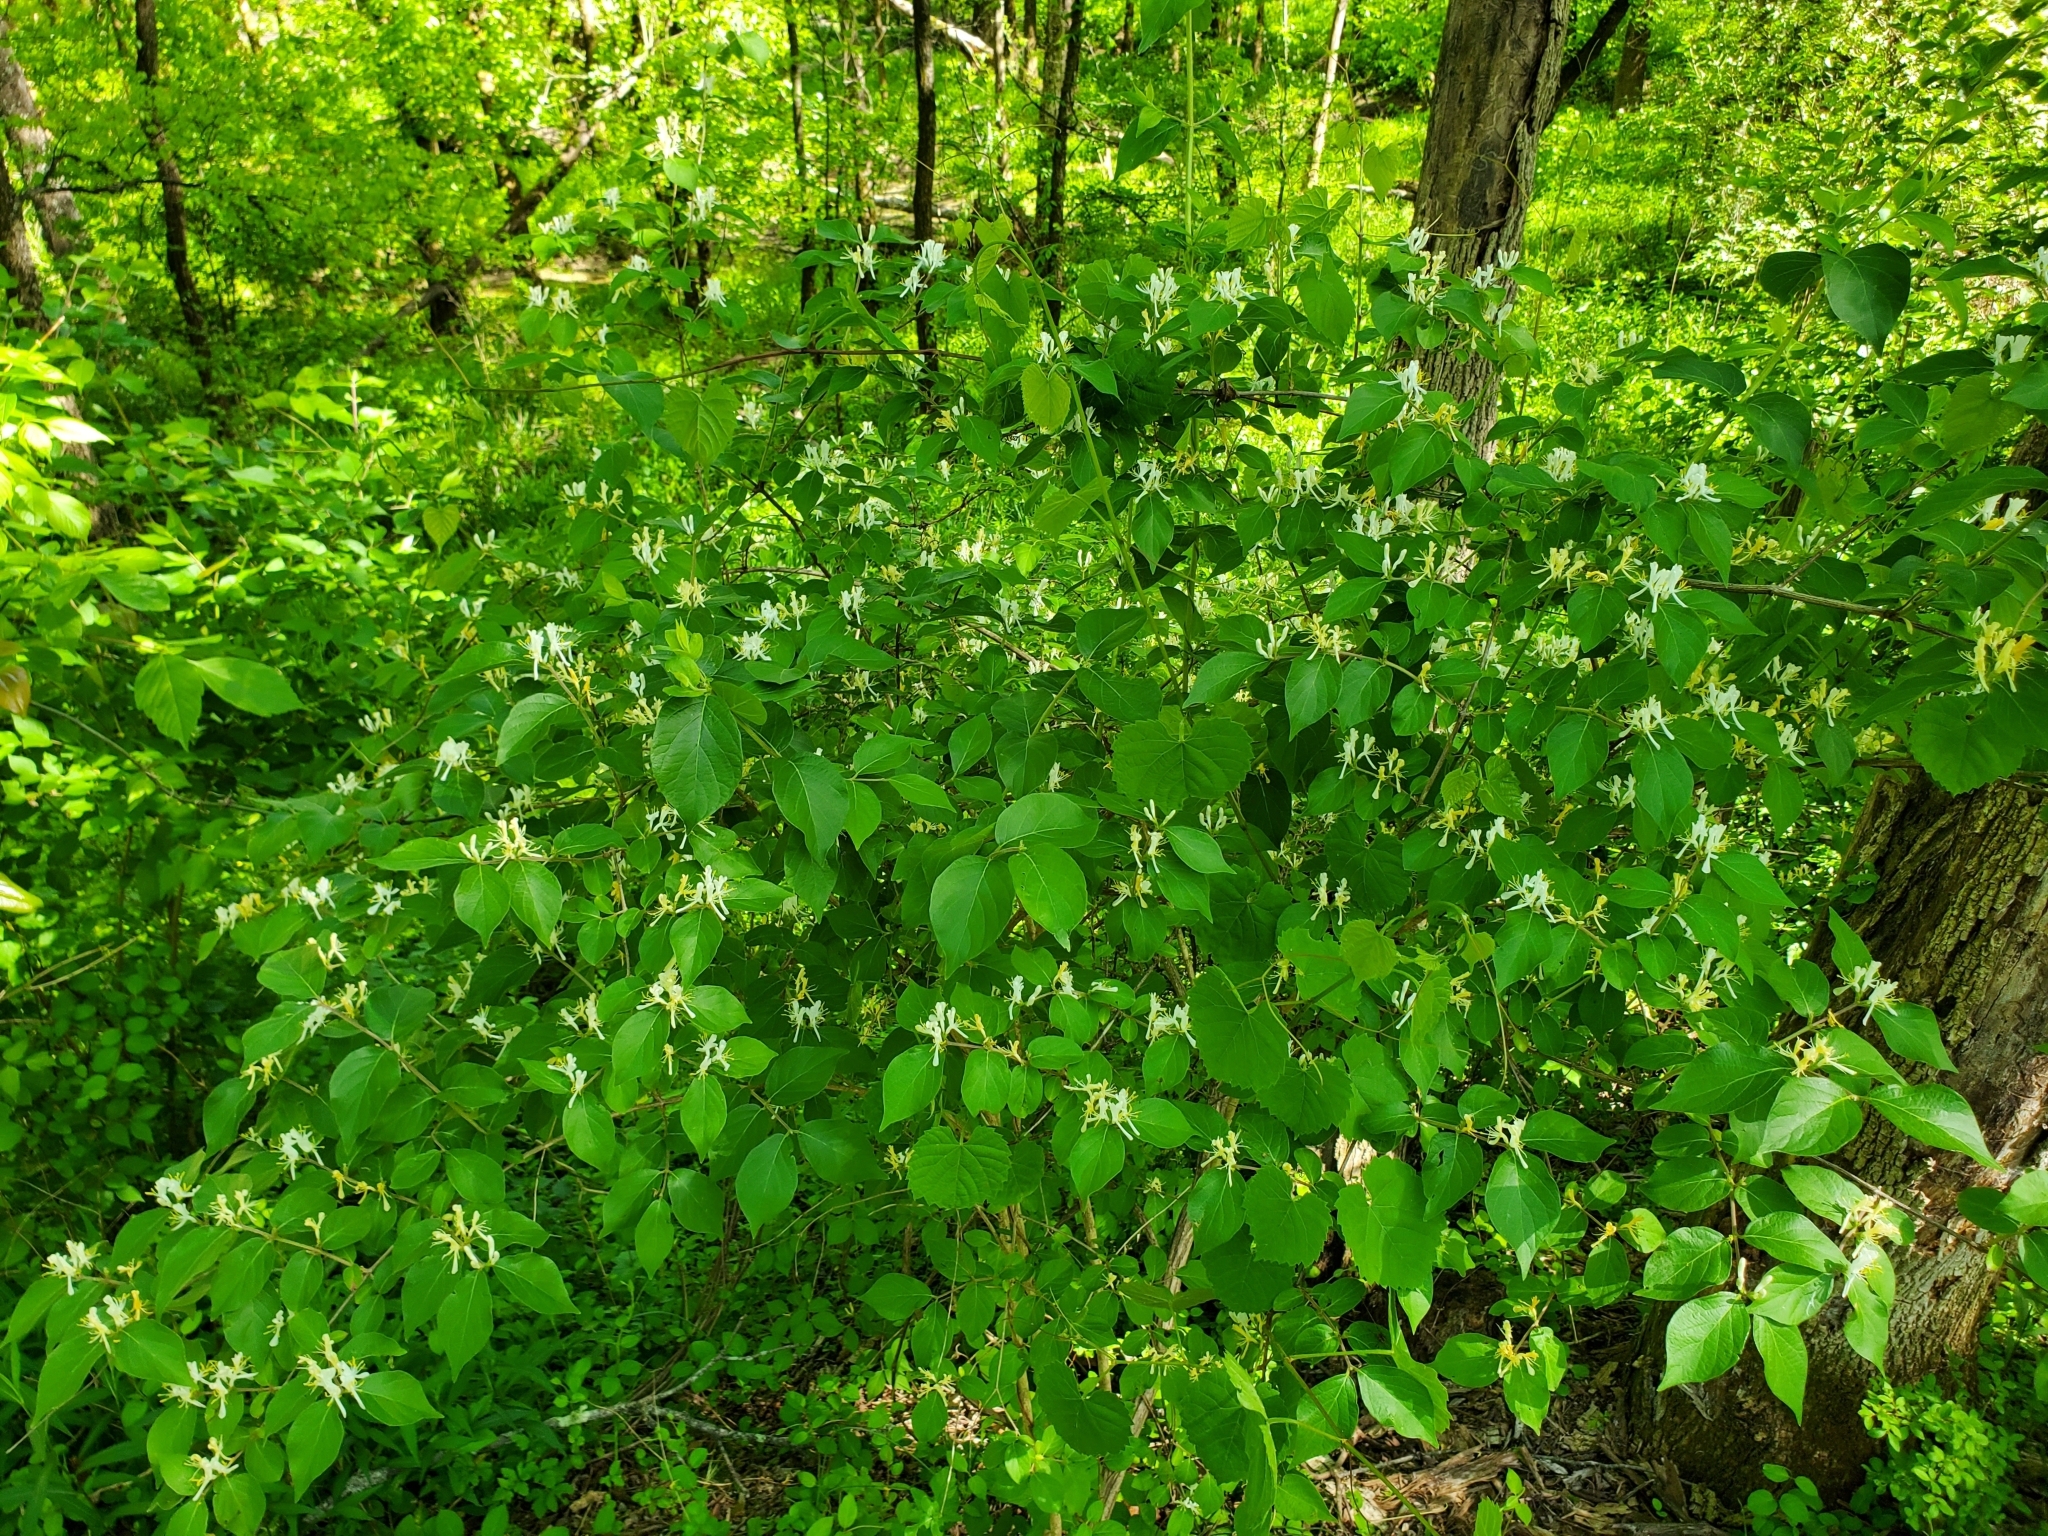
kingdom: Plantae
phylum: Tracheophyta
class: Magnoliopsida
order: Dipsacales
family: Caprifoliaceae
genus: Lonicera
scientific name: Lonicera maackii
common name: Amur honeysuckle
